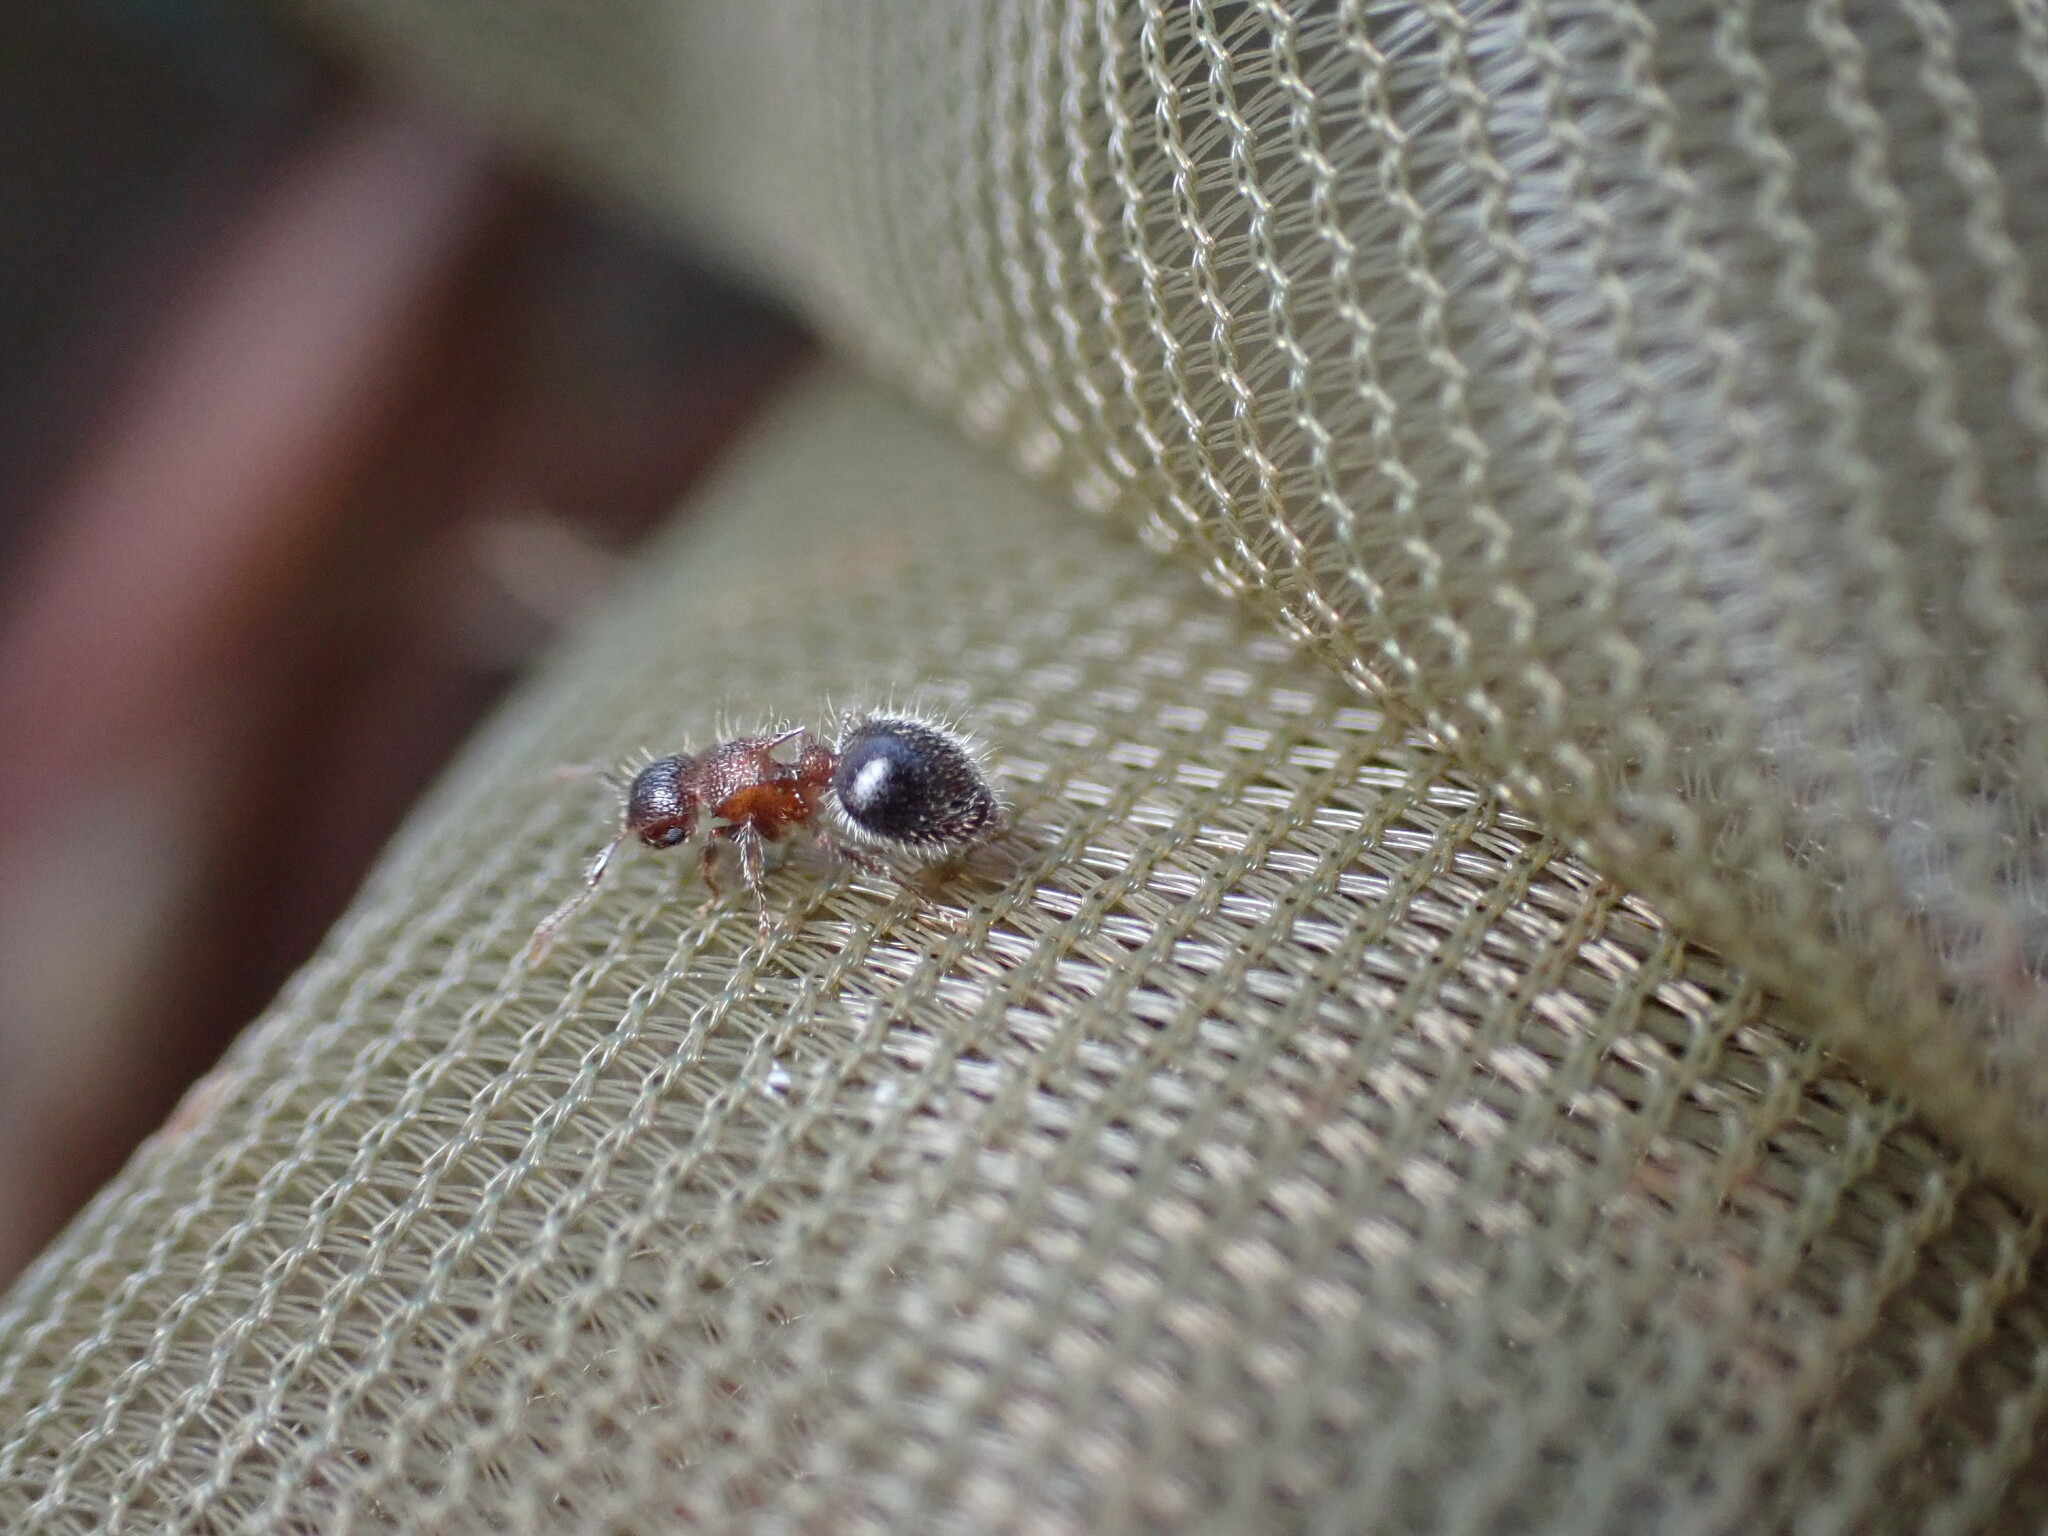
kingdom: Animalia
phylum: Arthropoda
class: Insecta
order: Hymenoptera
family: Formicidae
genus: Meranoplus
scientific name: Meranoplus bicolor
